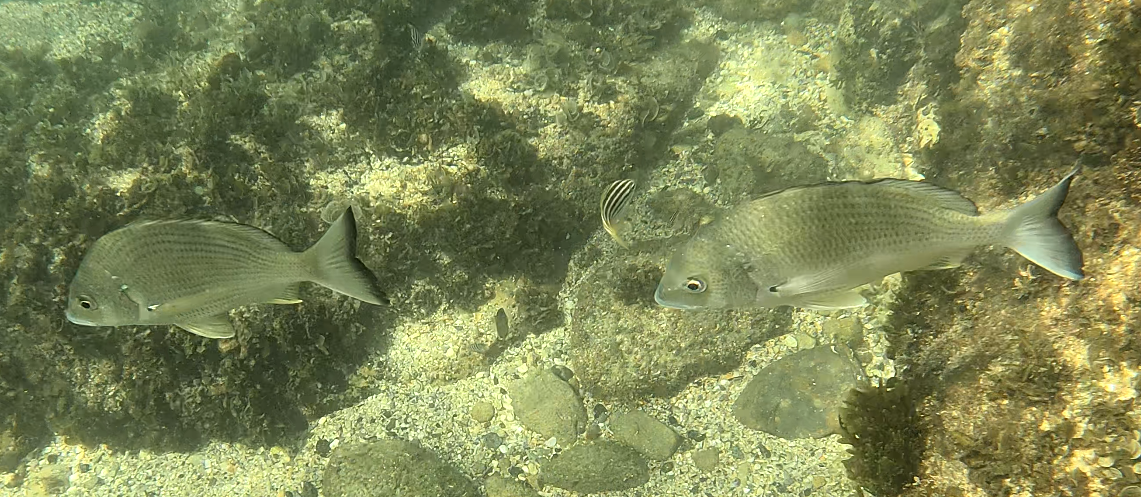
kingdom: Animalia
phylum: Chordata
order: Perciformes
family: Sparidae
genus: Acanthopagrus
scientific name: Acanthopagrus australis
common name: Surf bream
